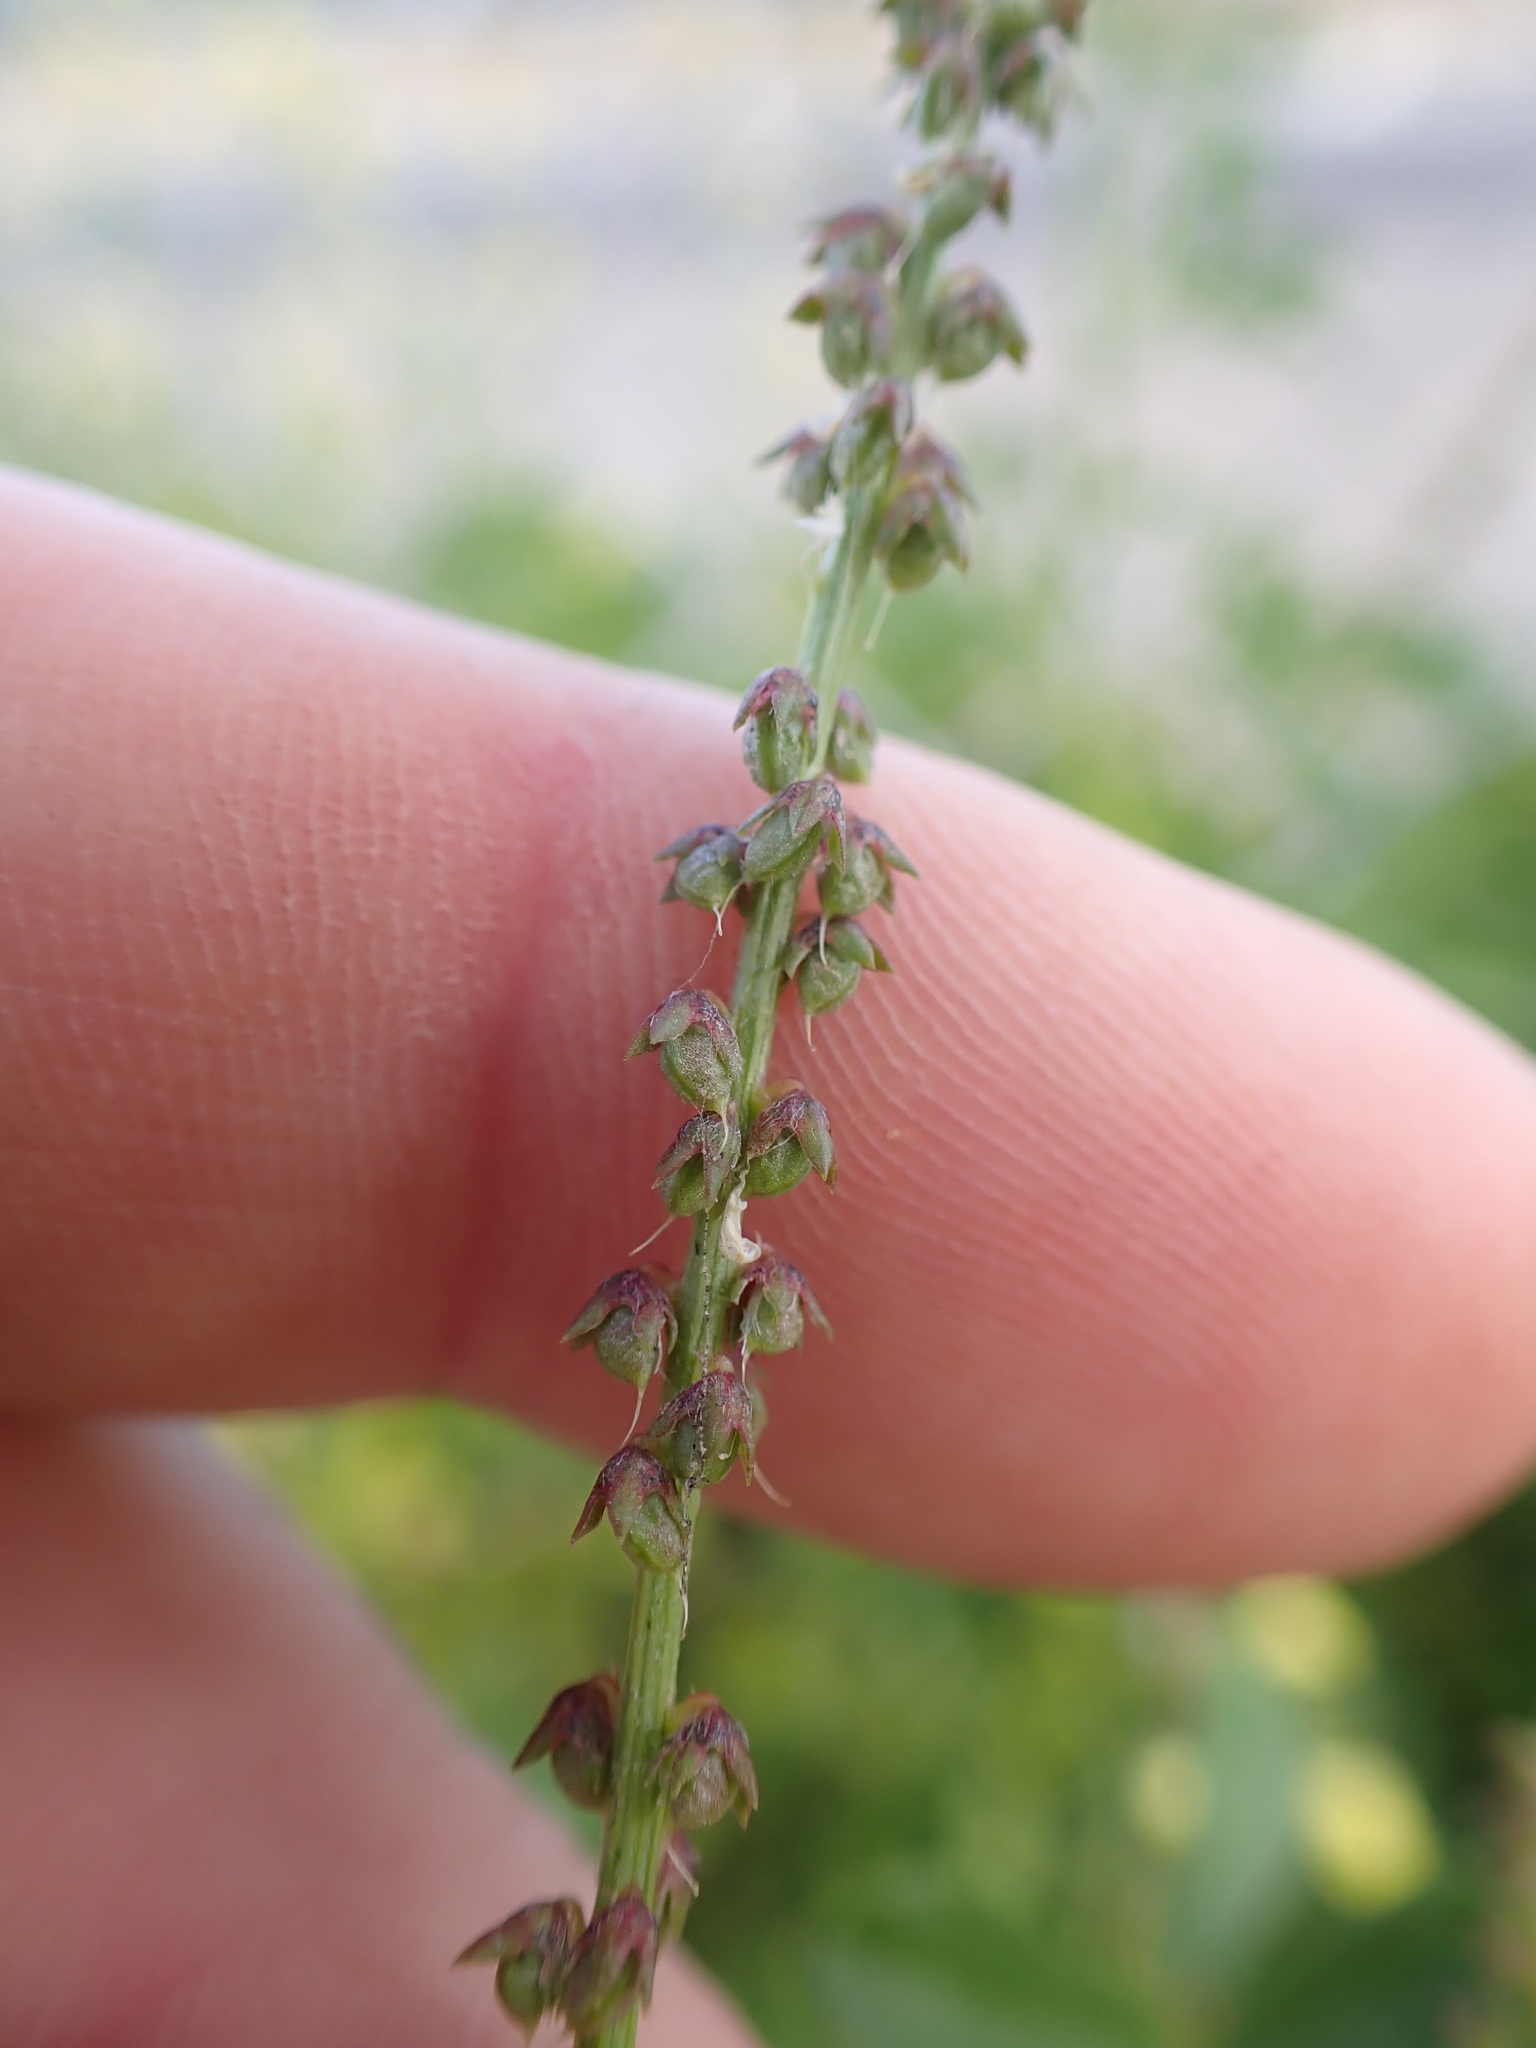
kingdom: Plantae
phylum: Tracheophyta
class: Magnoliopsida
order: Fabales
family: Fabaceae
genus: Melilotus
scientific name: Melilotus indicus
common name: Small melilot
